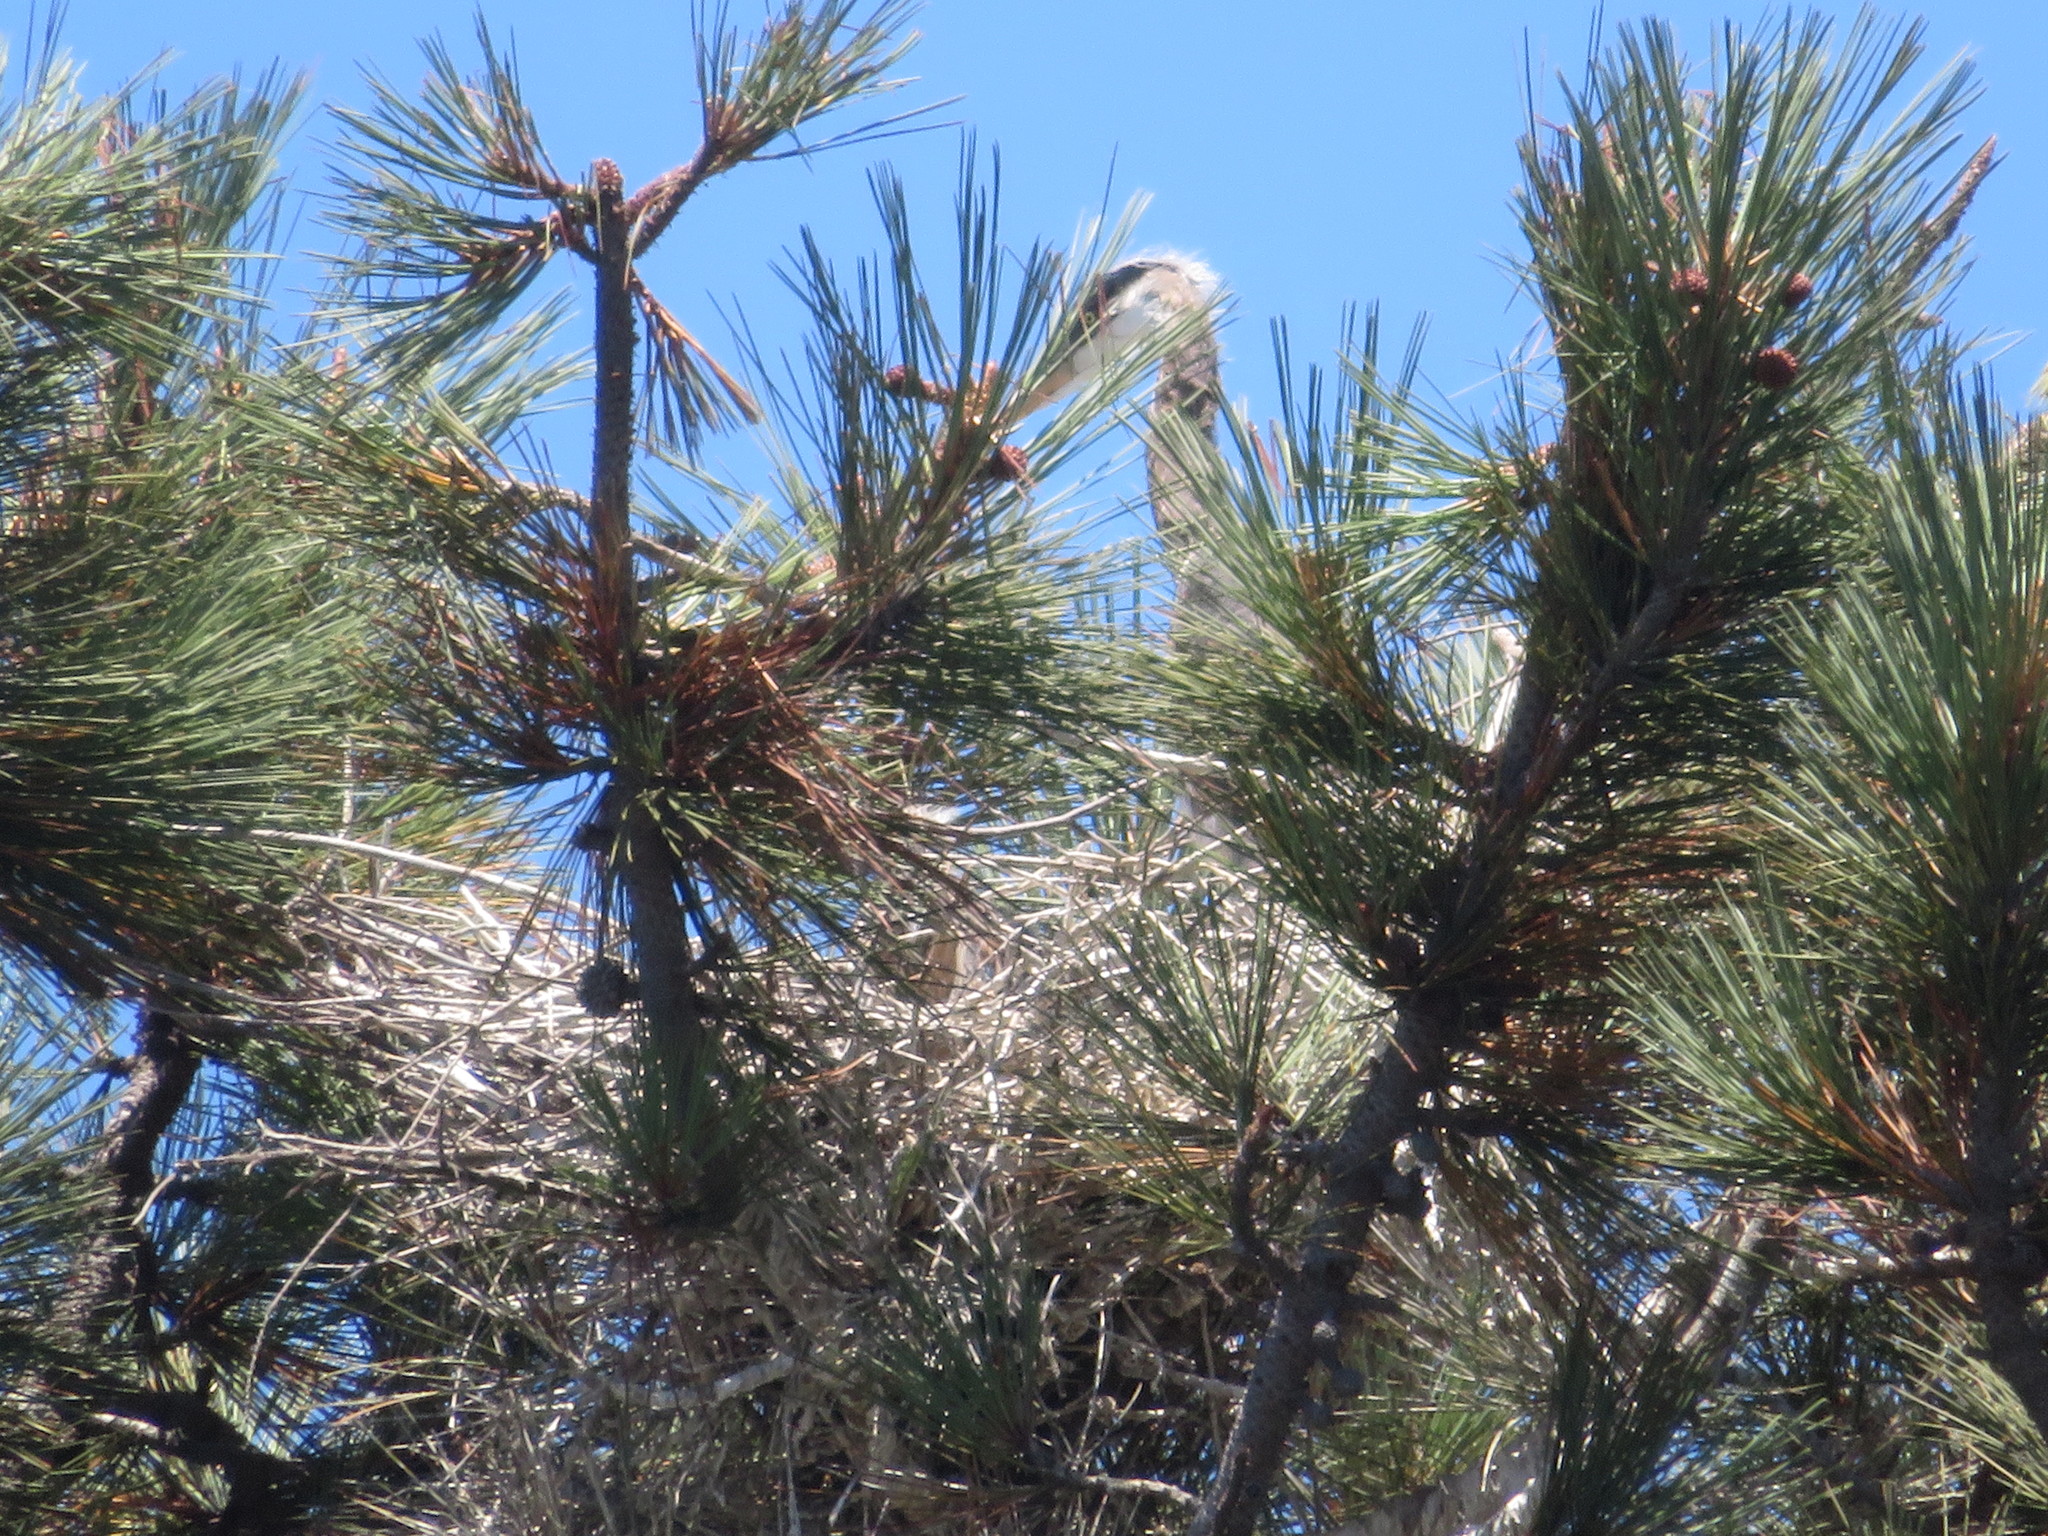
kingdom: Animalia
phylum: Chordata
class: Aves
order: Pelecaniformes
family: Ardeidae
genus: Ardea
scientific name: Ardea herodias
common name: Great blue heron
